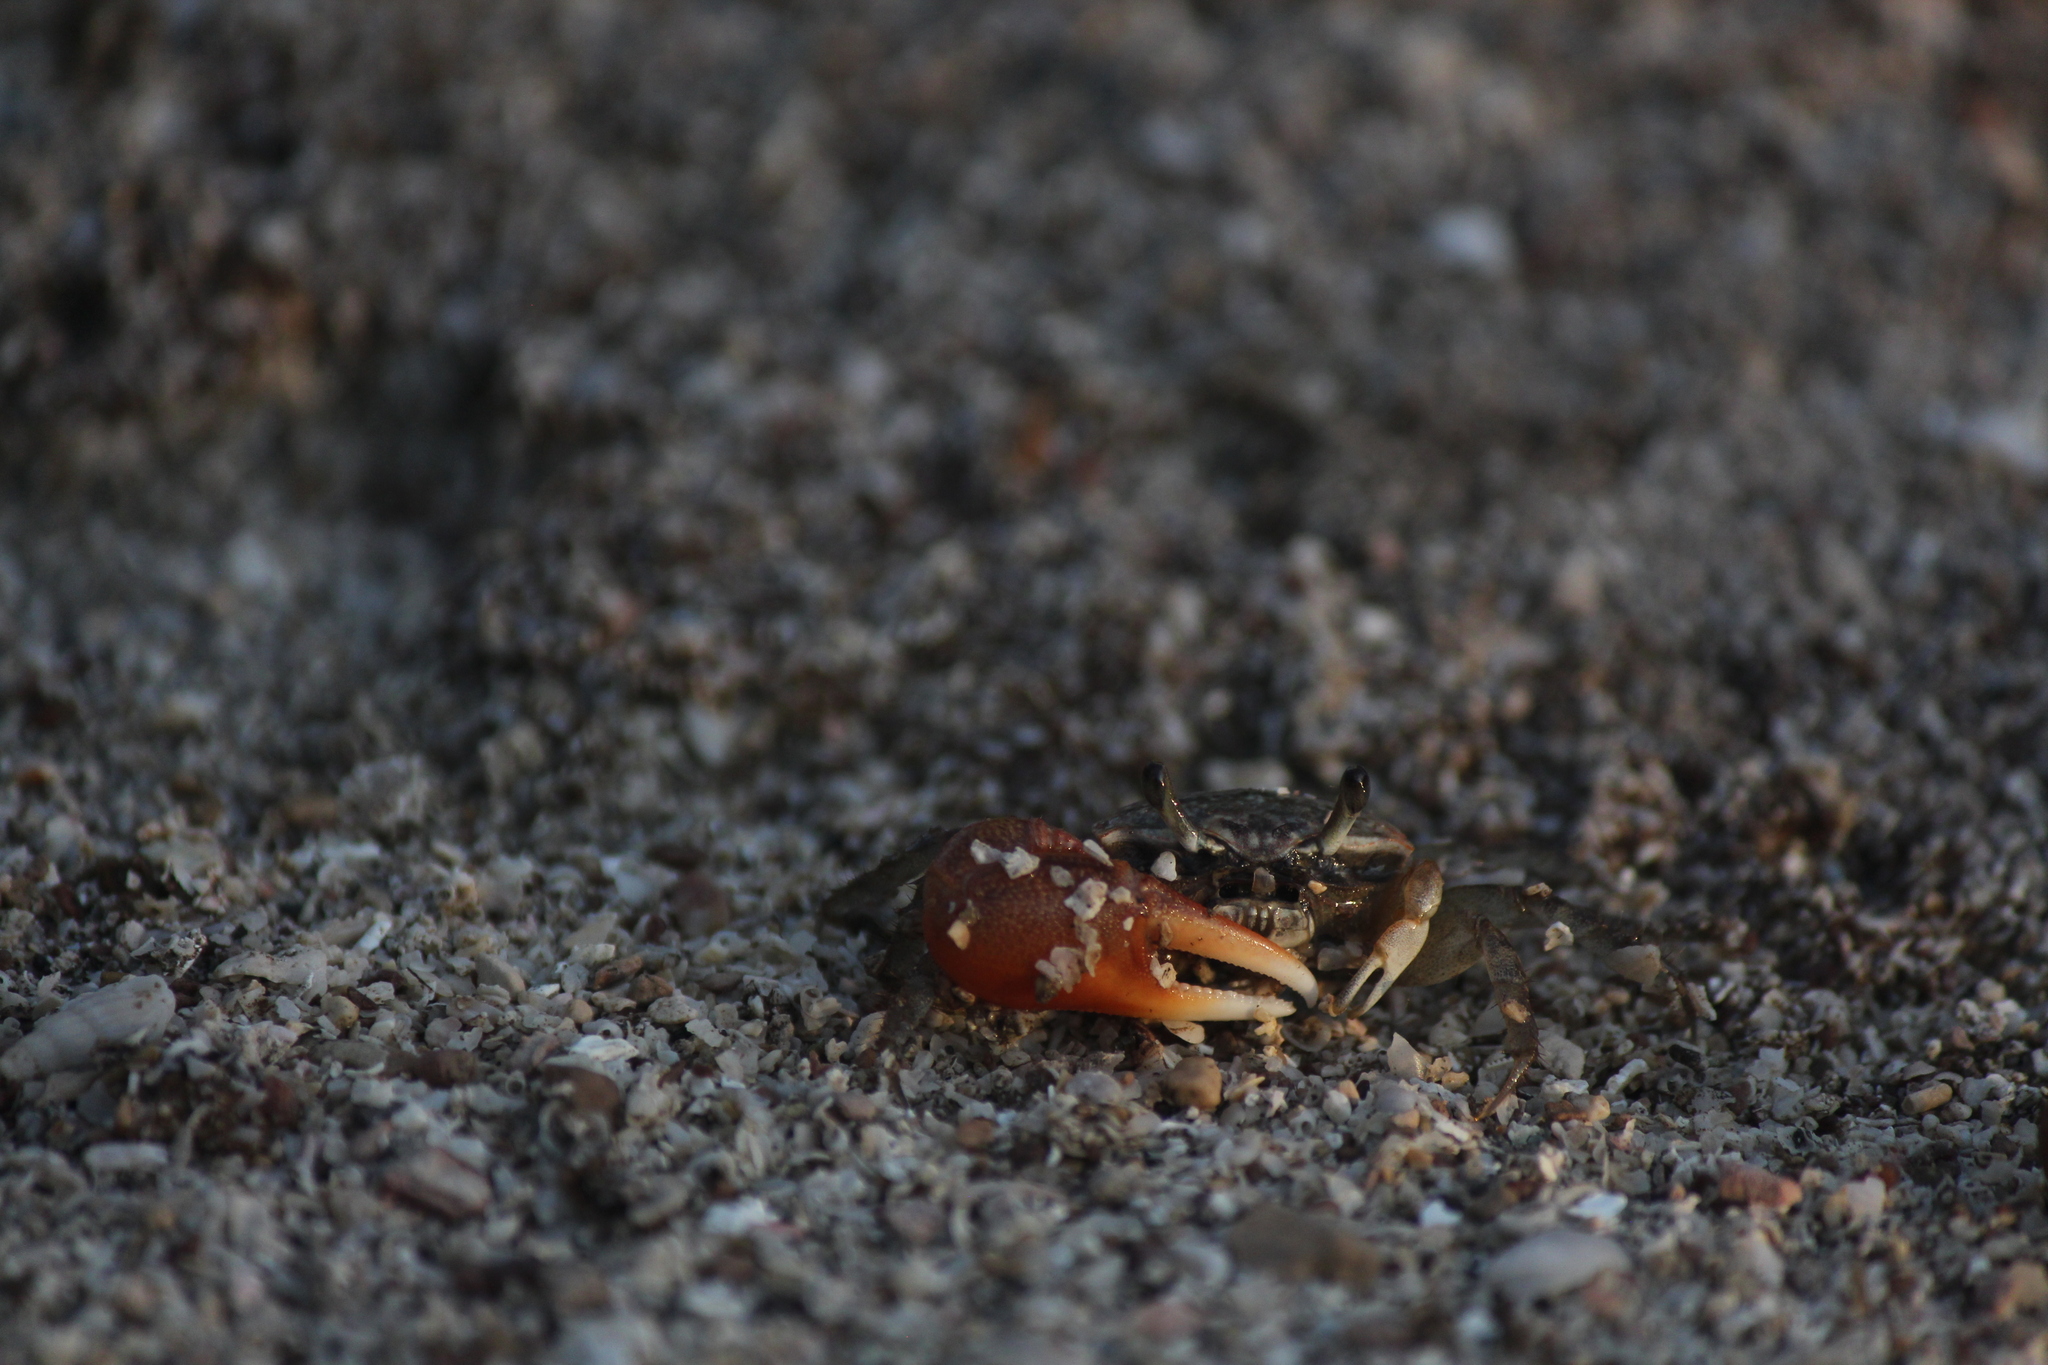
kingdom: Animalia
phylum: Arthropoda
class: Malacostraca
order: Decapoda
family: Ocypodidae
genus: Minuca
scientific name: Minuca galapagensis
